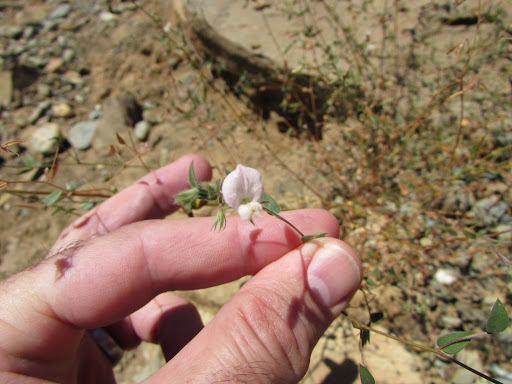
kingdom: Plantae
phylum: Tracheophyta
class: Magnoliopsida
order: Fabales
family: Fabaceae
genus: Acmispon
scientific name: Acmispon americanus
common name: American bird's-foot trefoil
